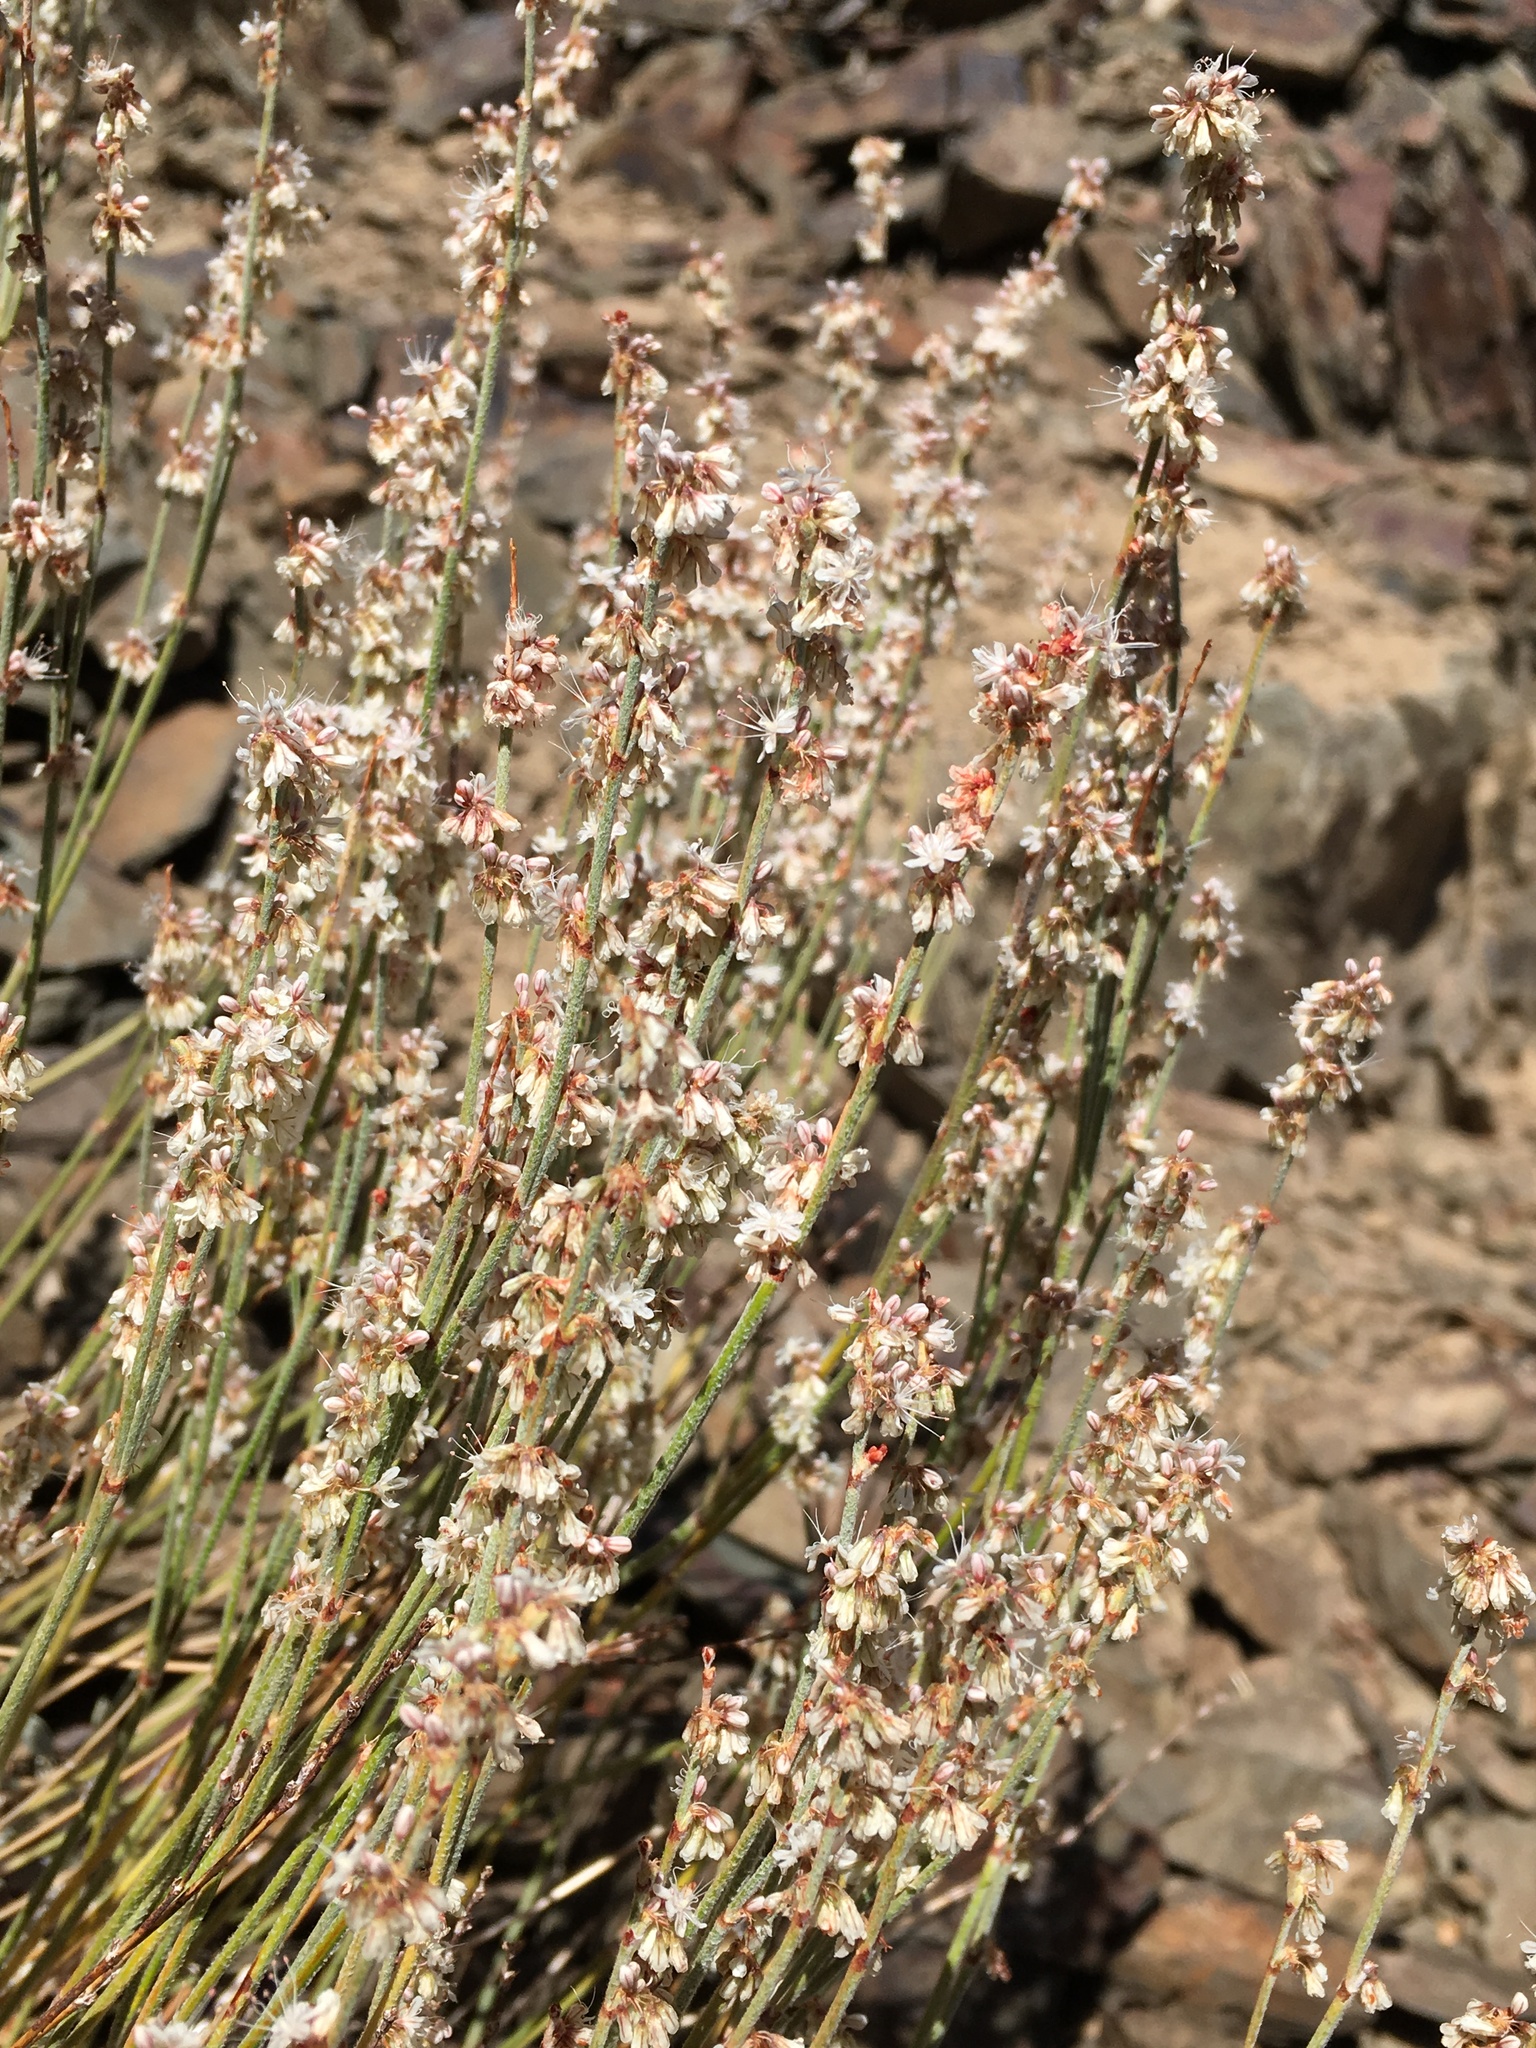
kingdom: Plantae
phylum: Tracheophyta
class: Magnoliopsida
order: Caryophyllales
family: Polygonaceae
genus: Eriogonum
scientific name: Eriogonum wrightii
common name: Bastard-sage
